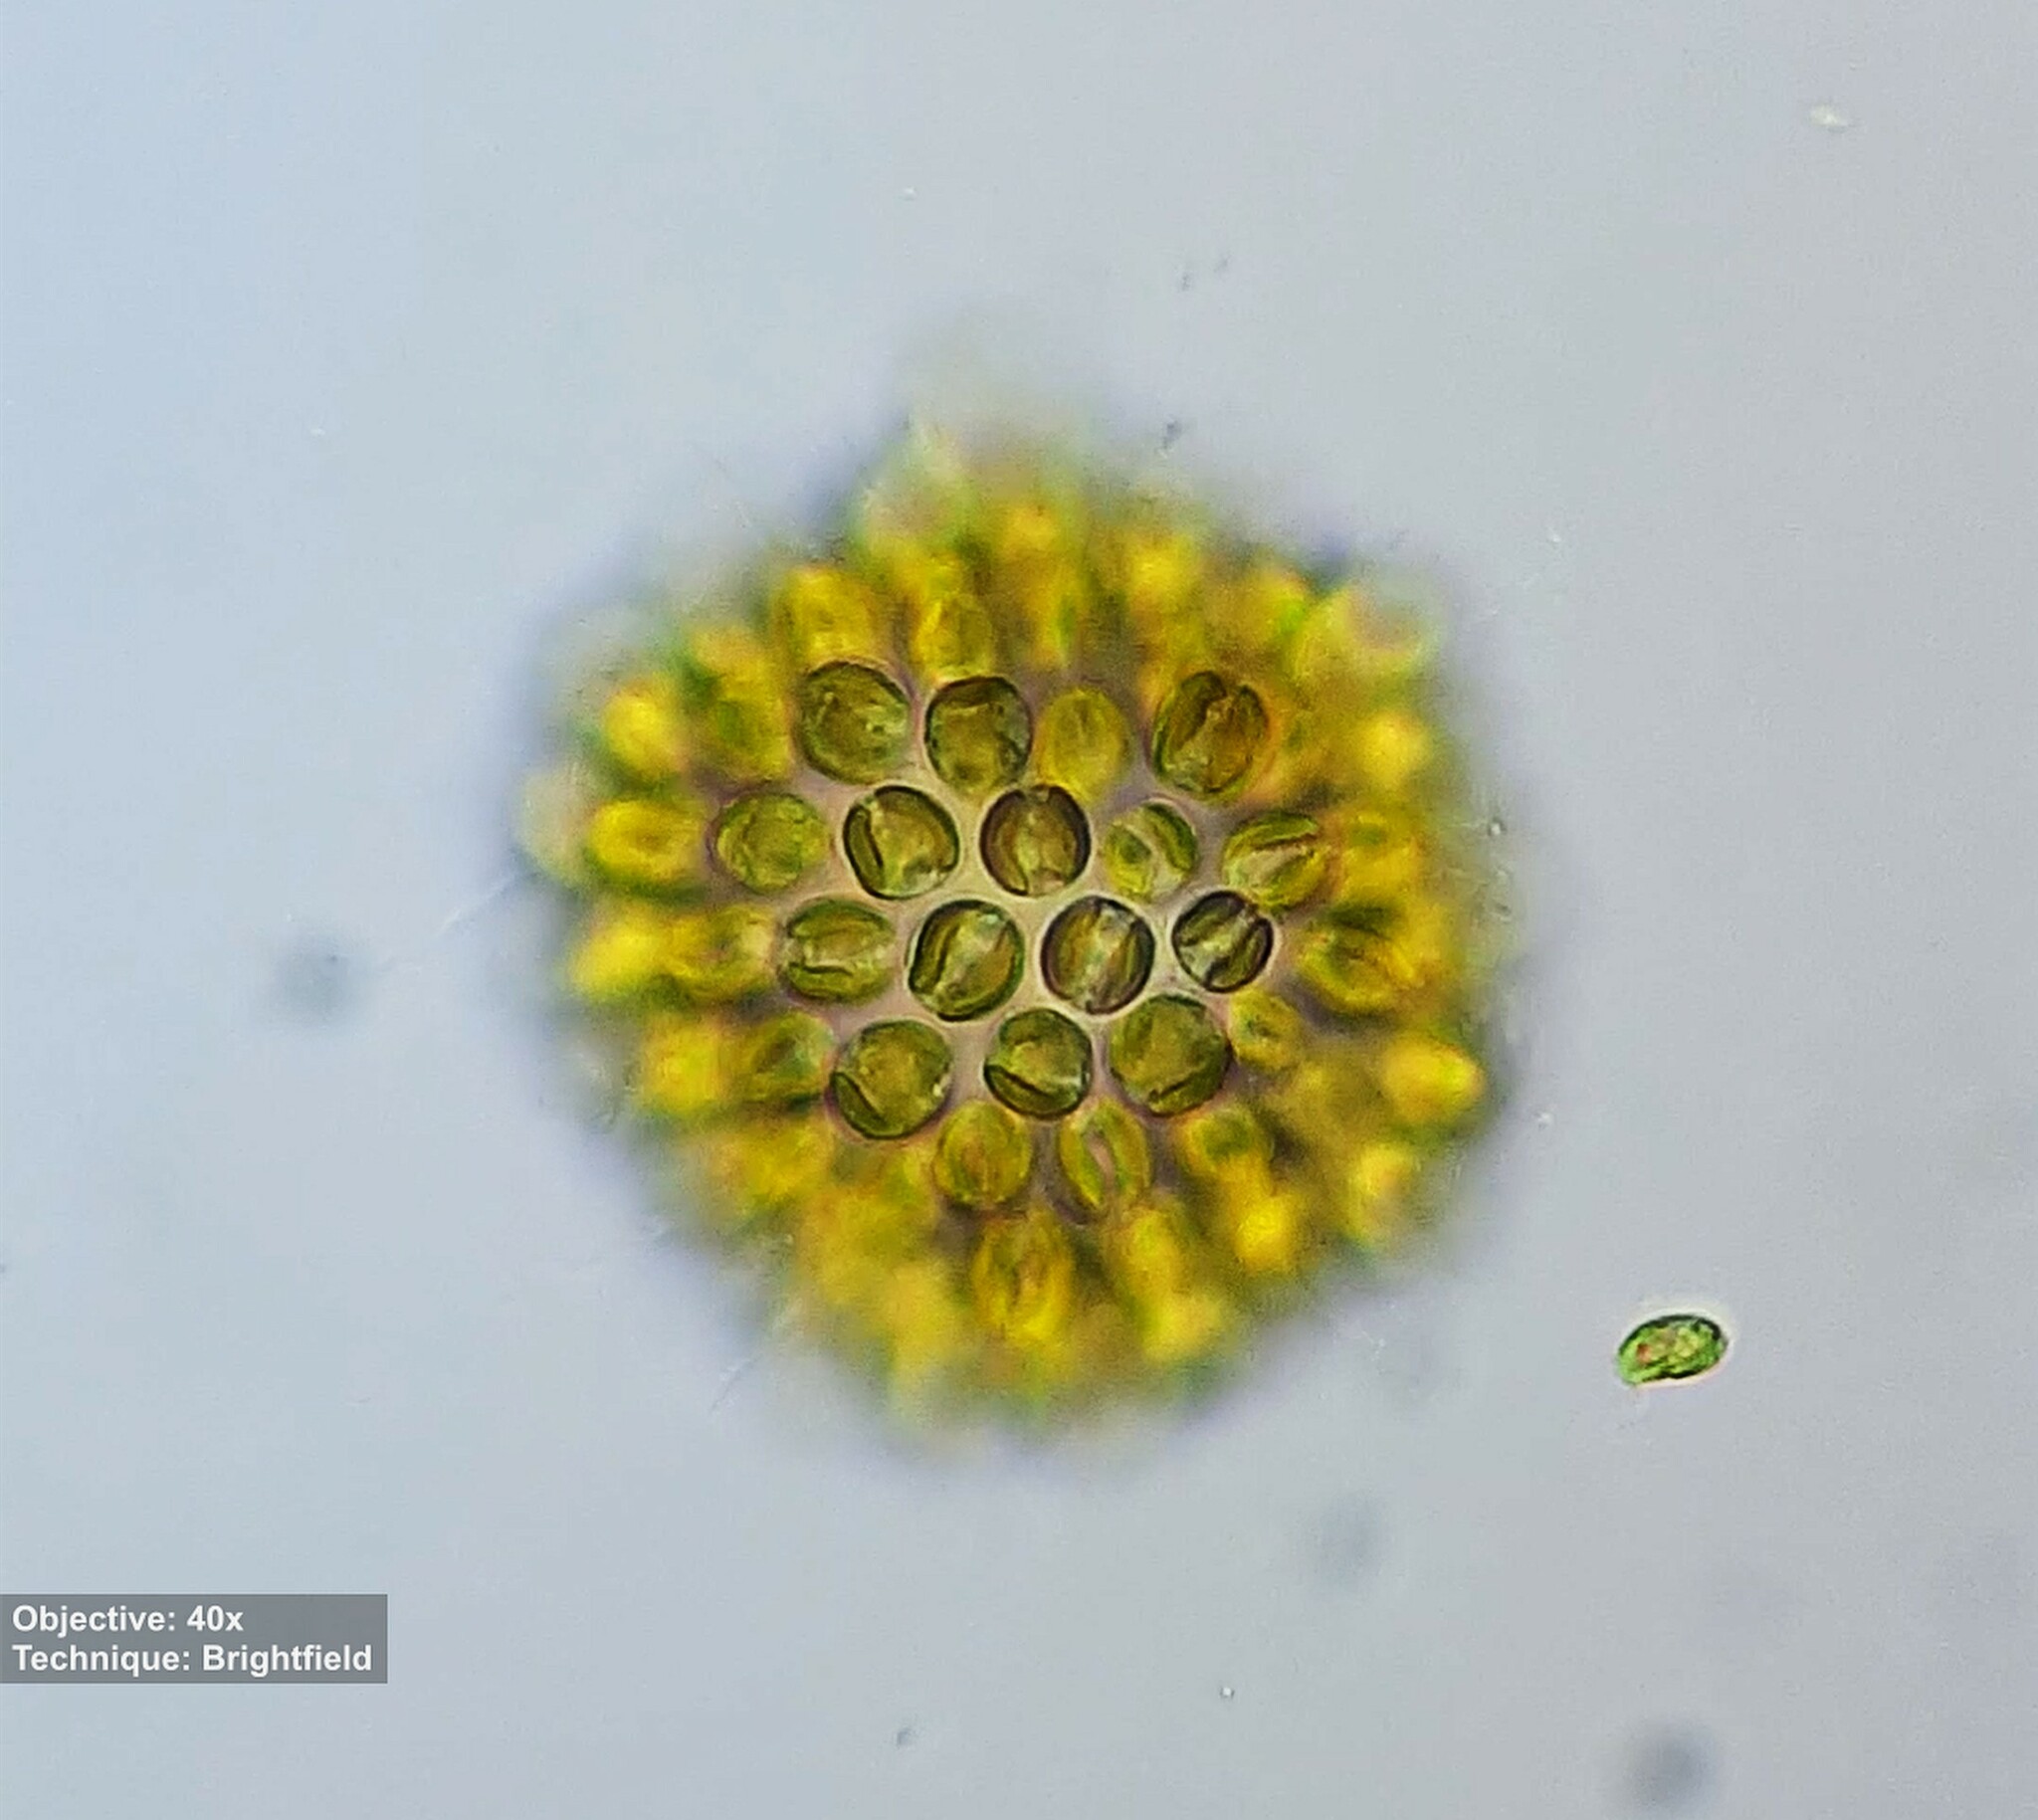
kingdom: Chromista
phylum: Ochrophyta
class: Synurophyceae
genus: Synura
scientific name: Synura
